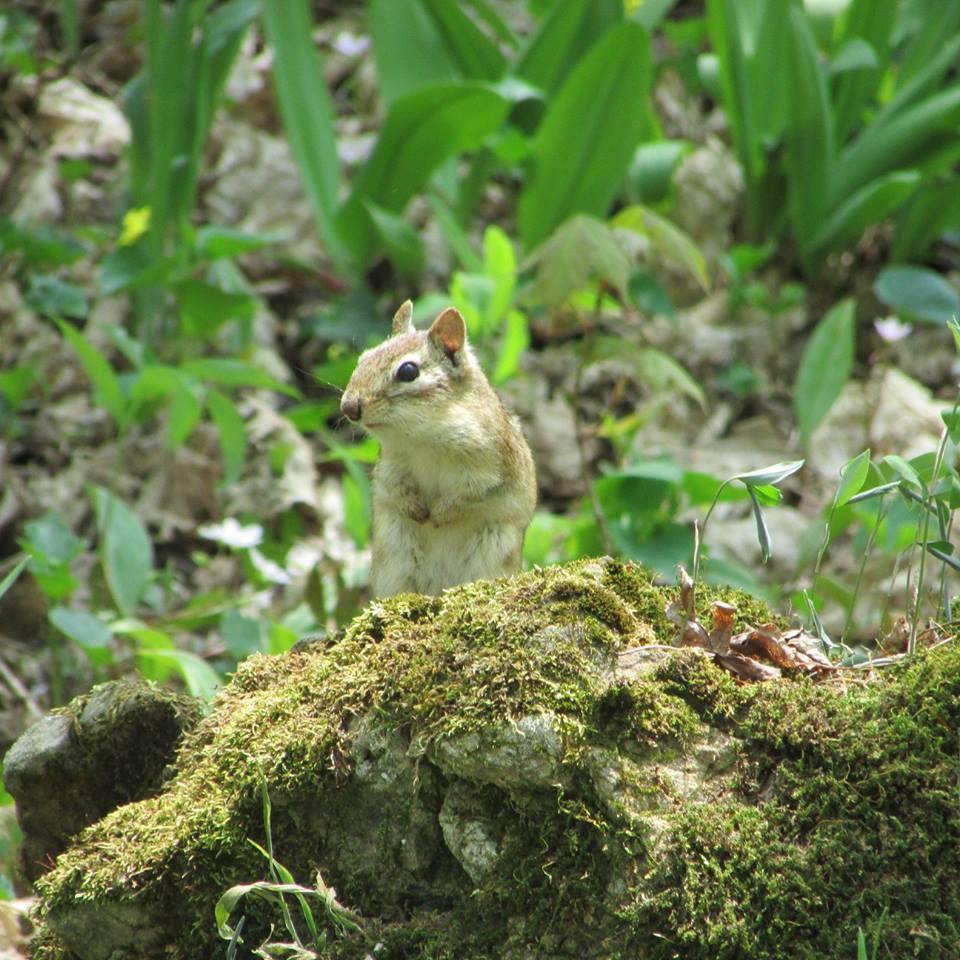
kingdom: Animalia
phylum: Chordata
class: Mammalia
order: Rodentia
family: Sciuridae
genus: Tamias
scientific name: Tamias striatus
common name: Eastern chipmunk
